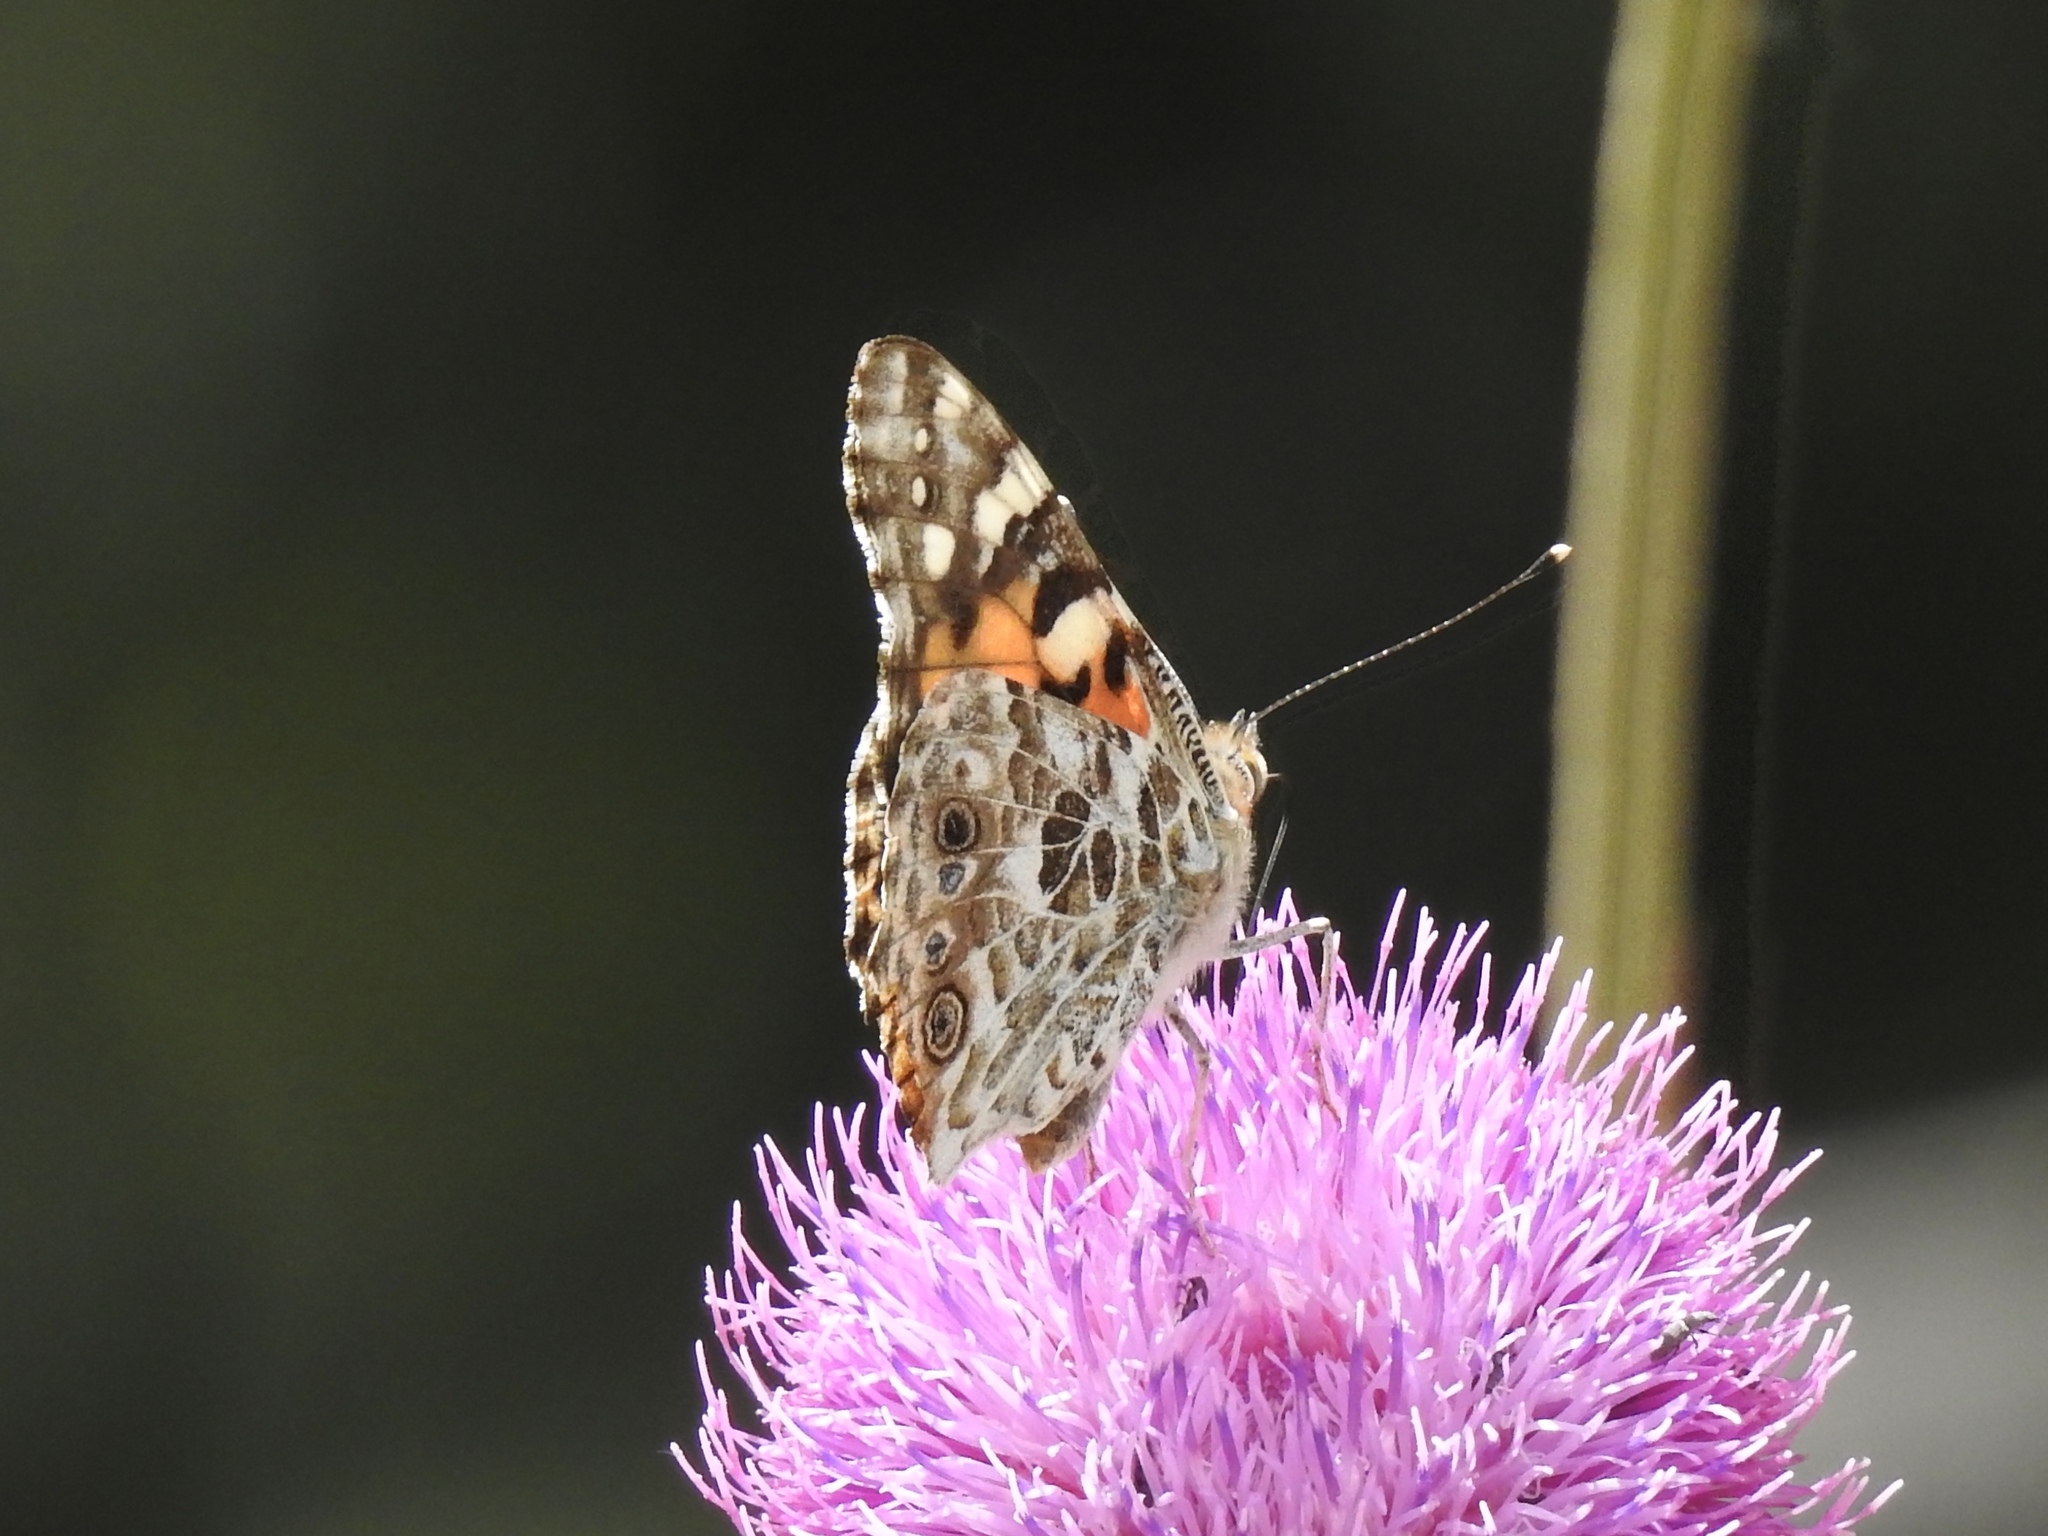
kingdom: Animalia
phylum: Arthropoda
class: Insecta
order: Lepidoptera
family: Nymphalidae
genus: Vanessa
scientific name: Vanessa cardui
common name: Painted lady
